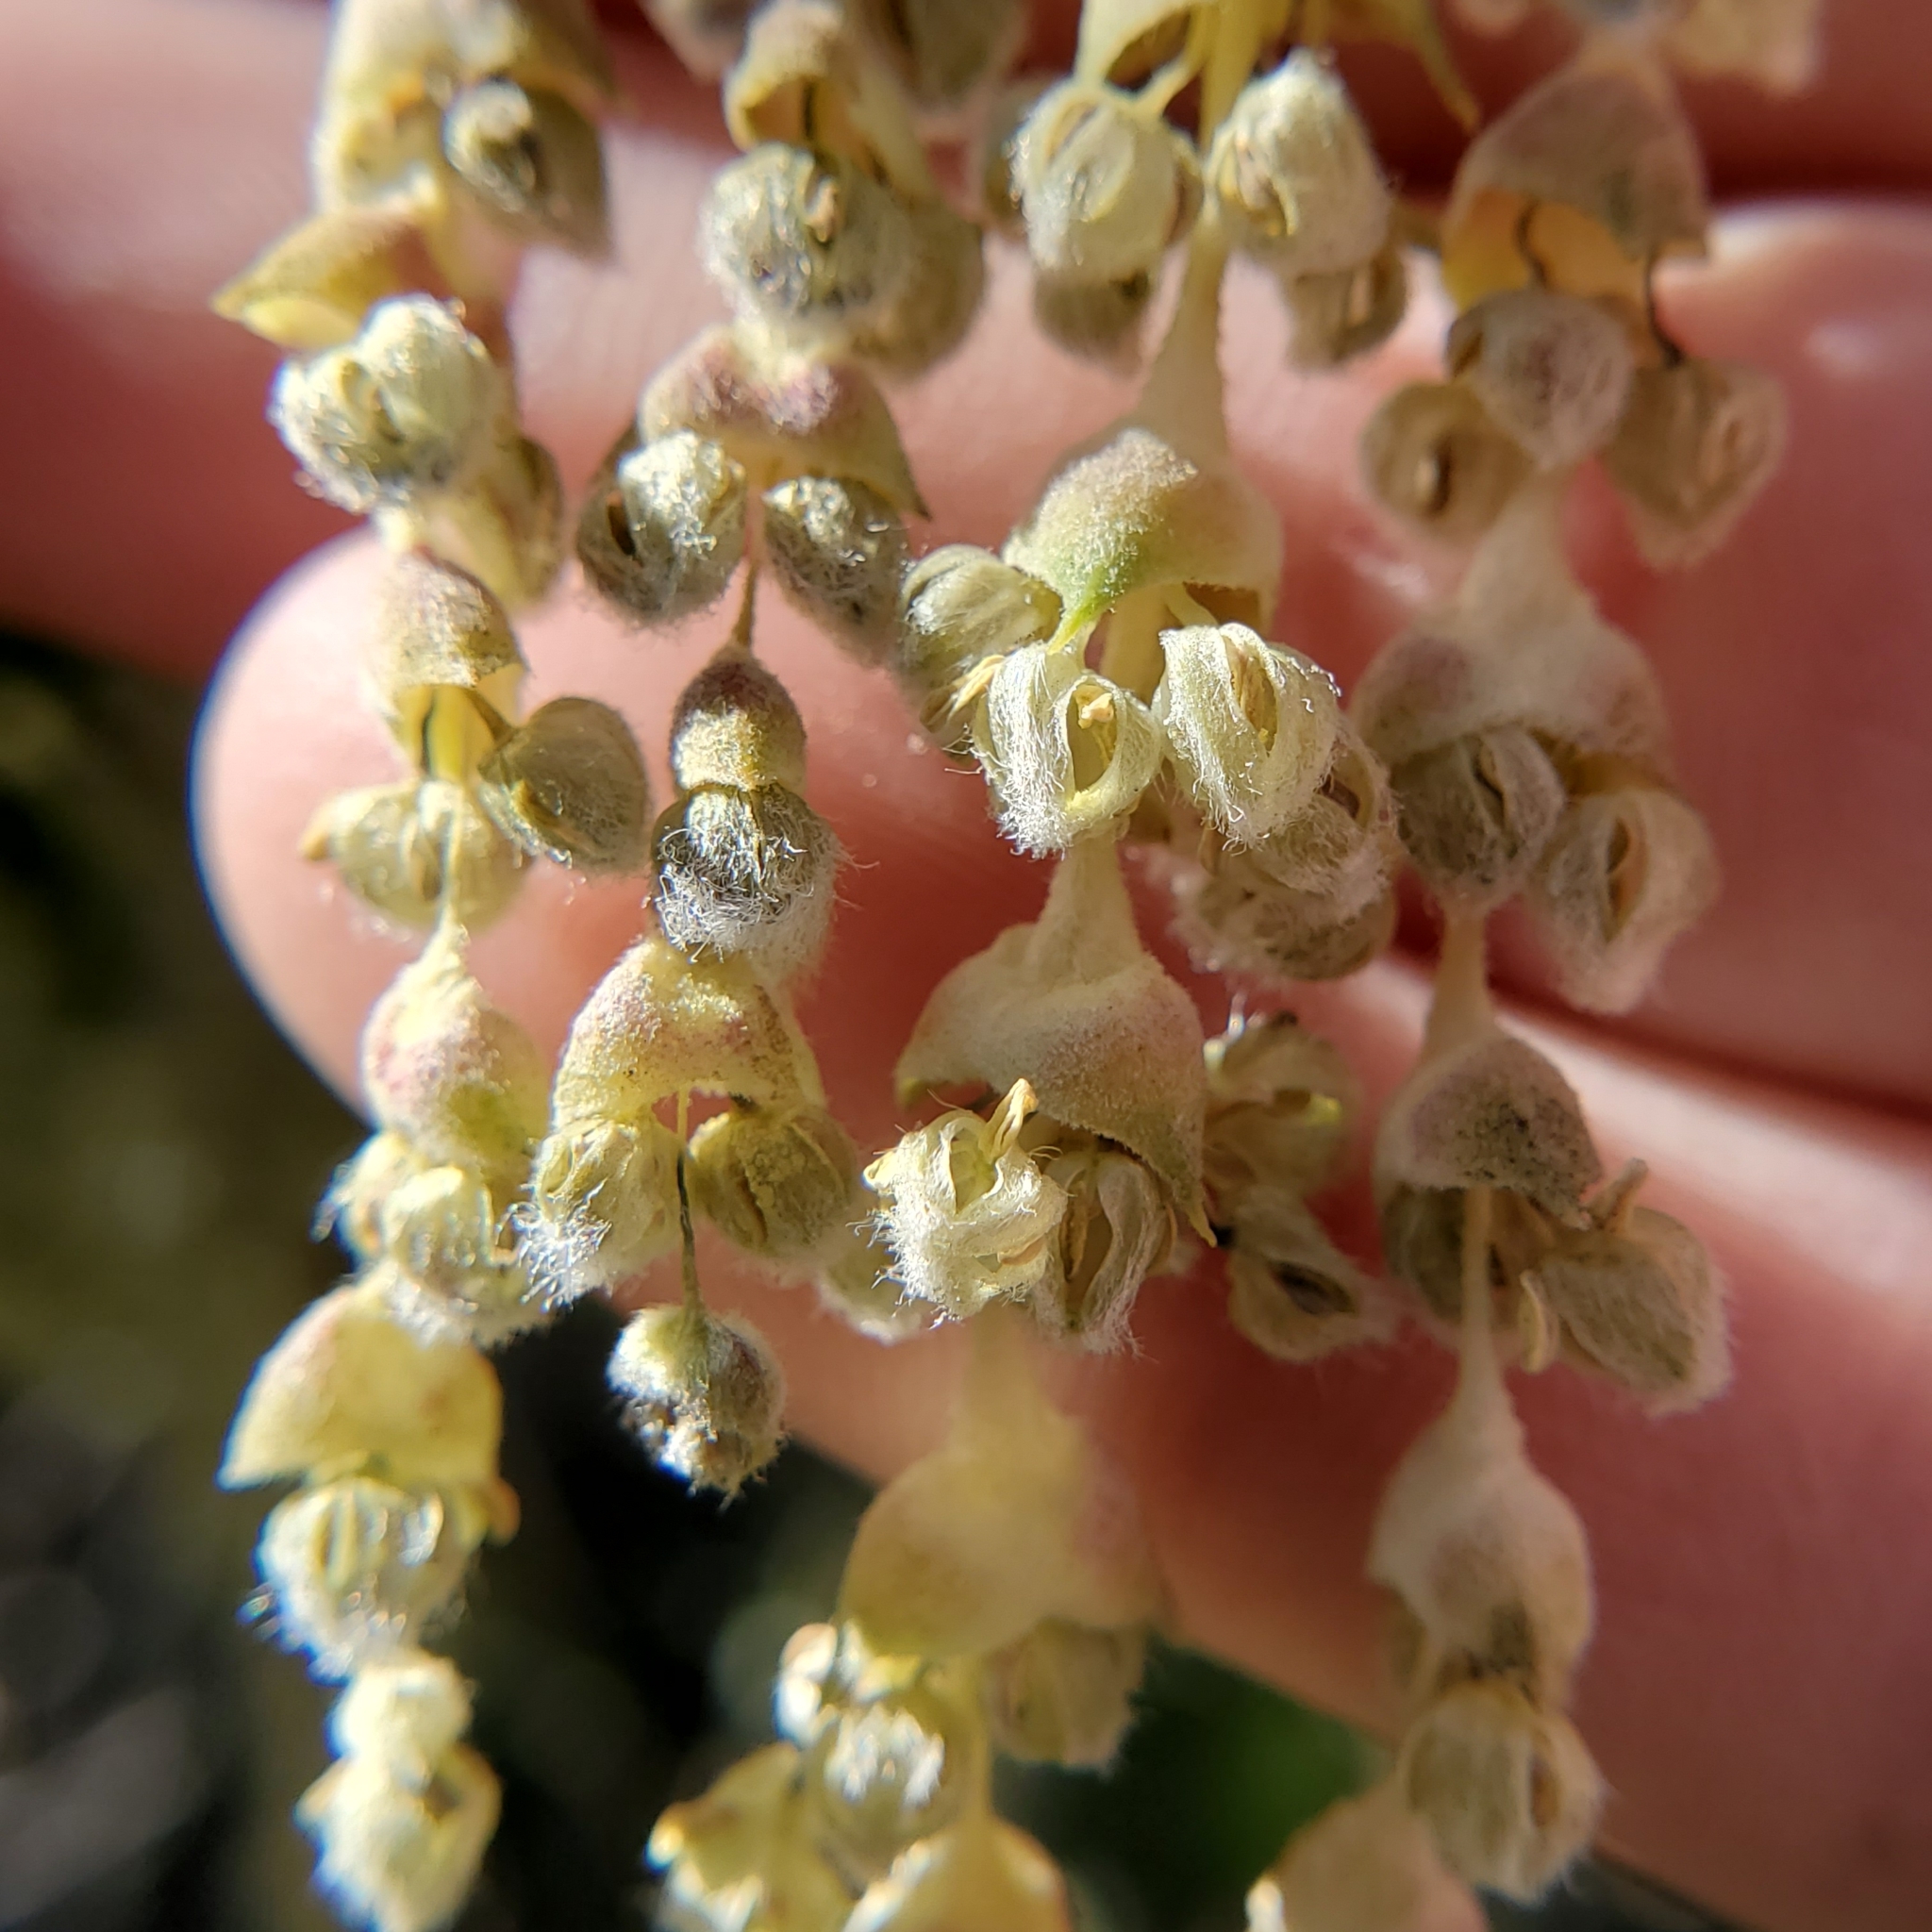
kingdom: Plantae
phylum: Tracheophyta
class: Magnoliopsida
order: Garryales
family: Garryaceae
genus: Garrya
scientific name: Garrya flavescens
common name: Ashy silk-tassel
